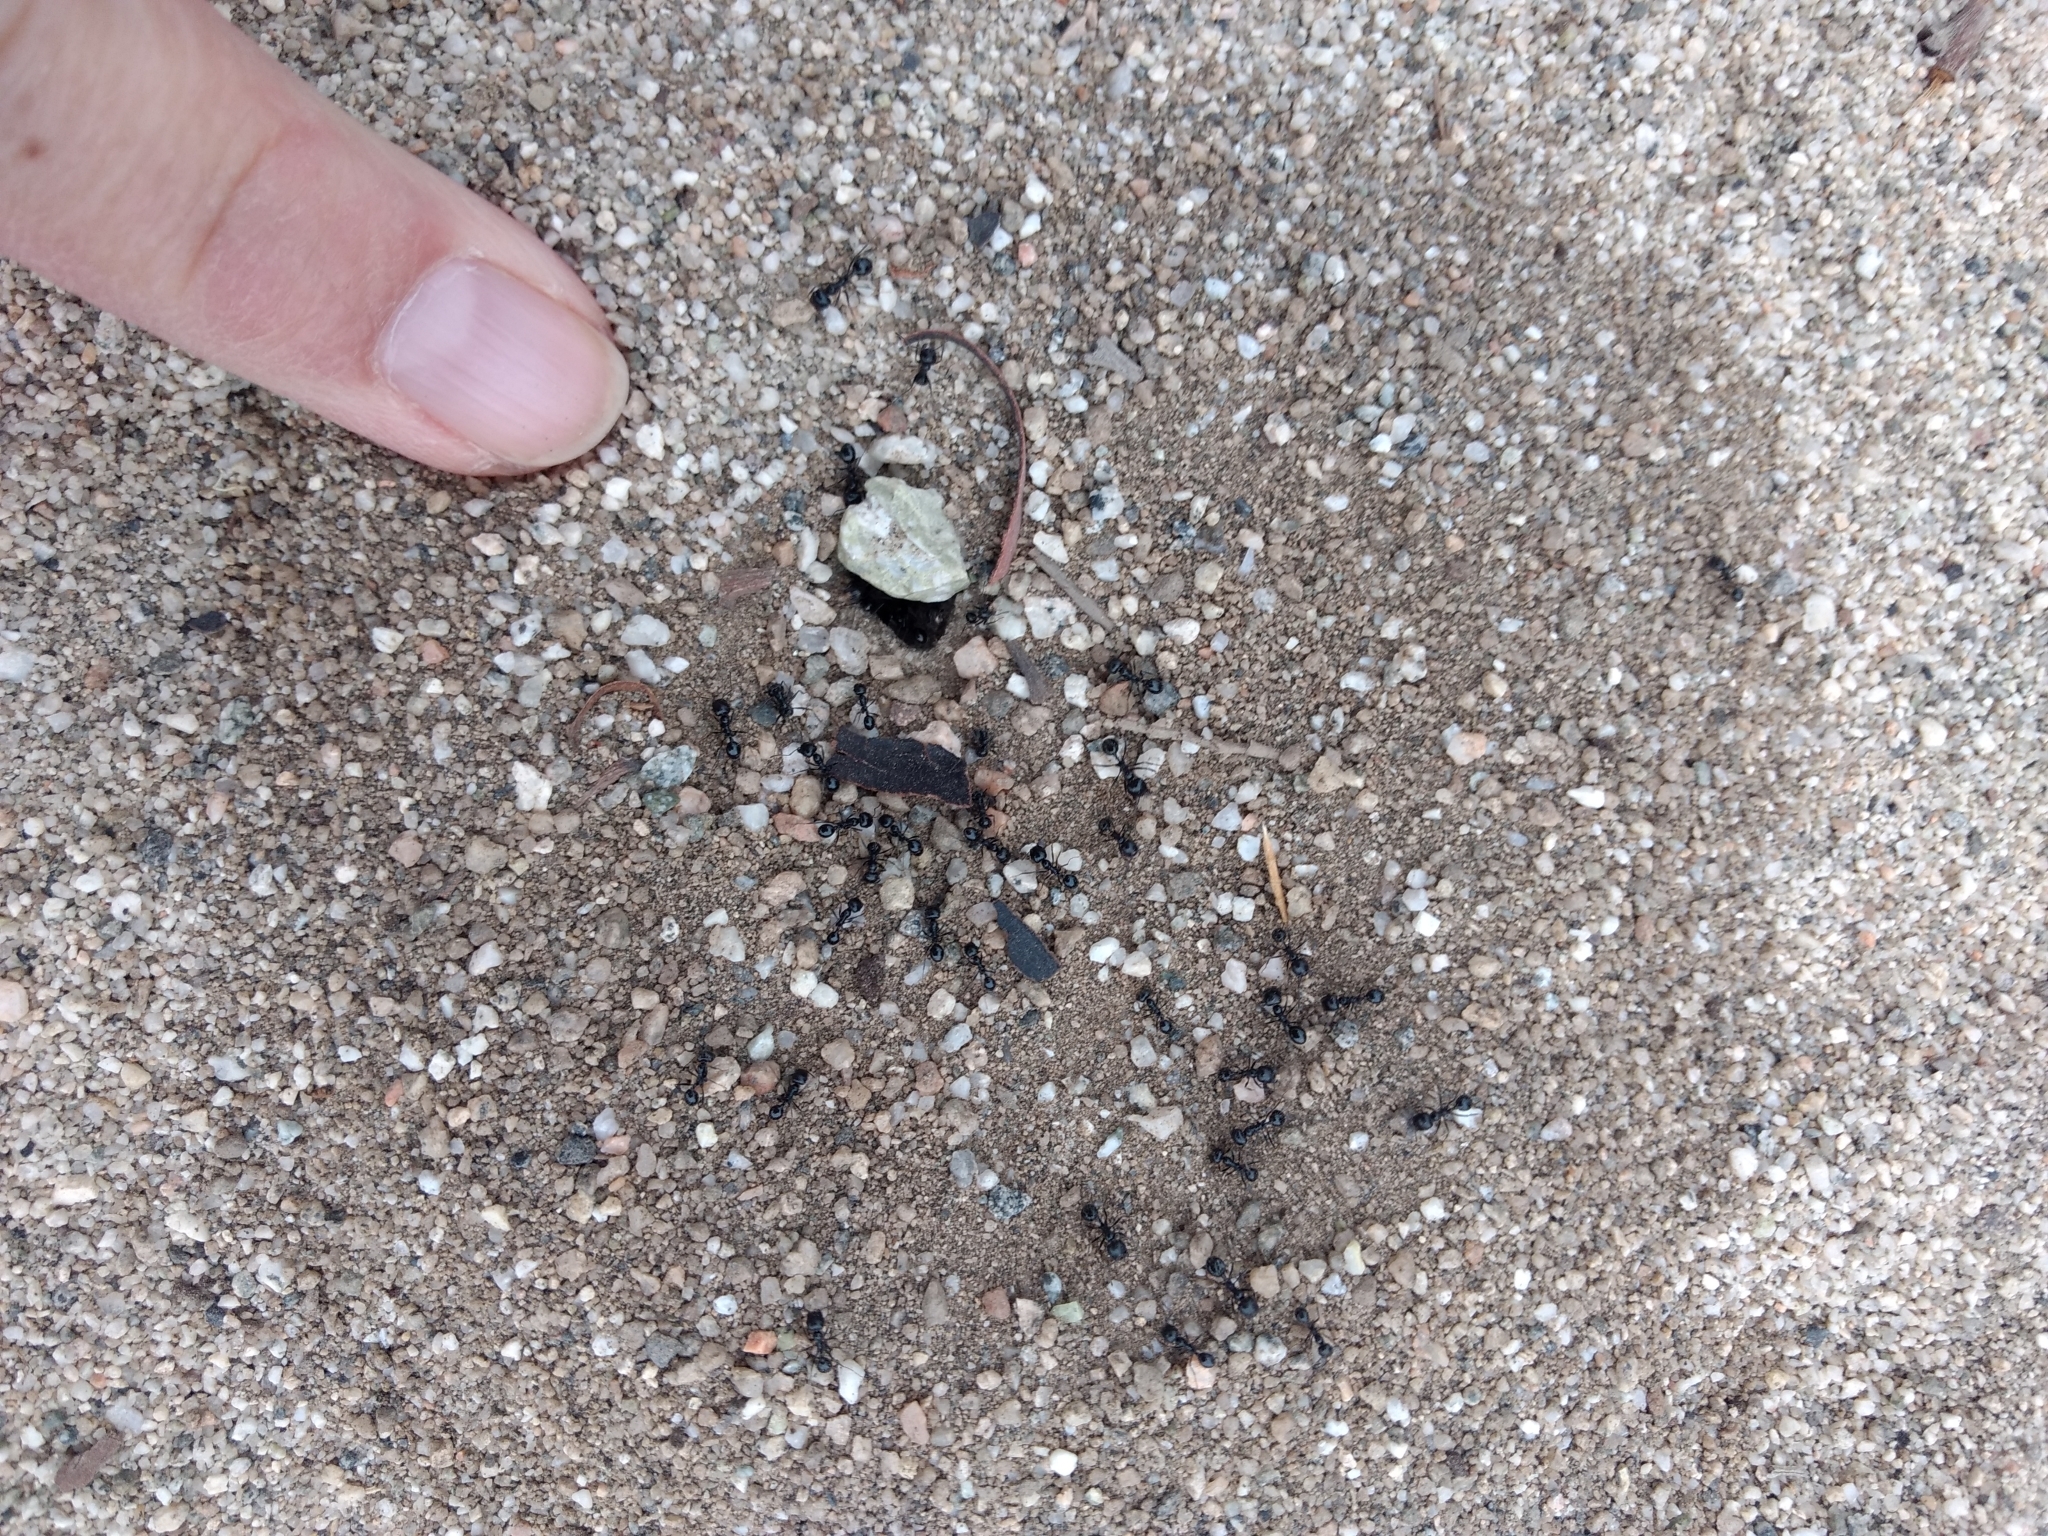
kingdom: Animalia
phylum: Arthropoda
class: Insecta
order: Hymenoptera
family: Formicidae
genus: Messor
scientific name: Messor pergandei
